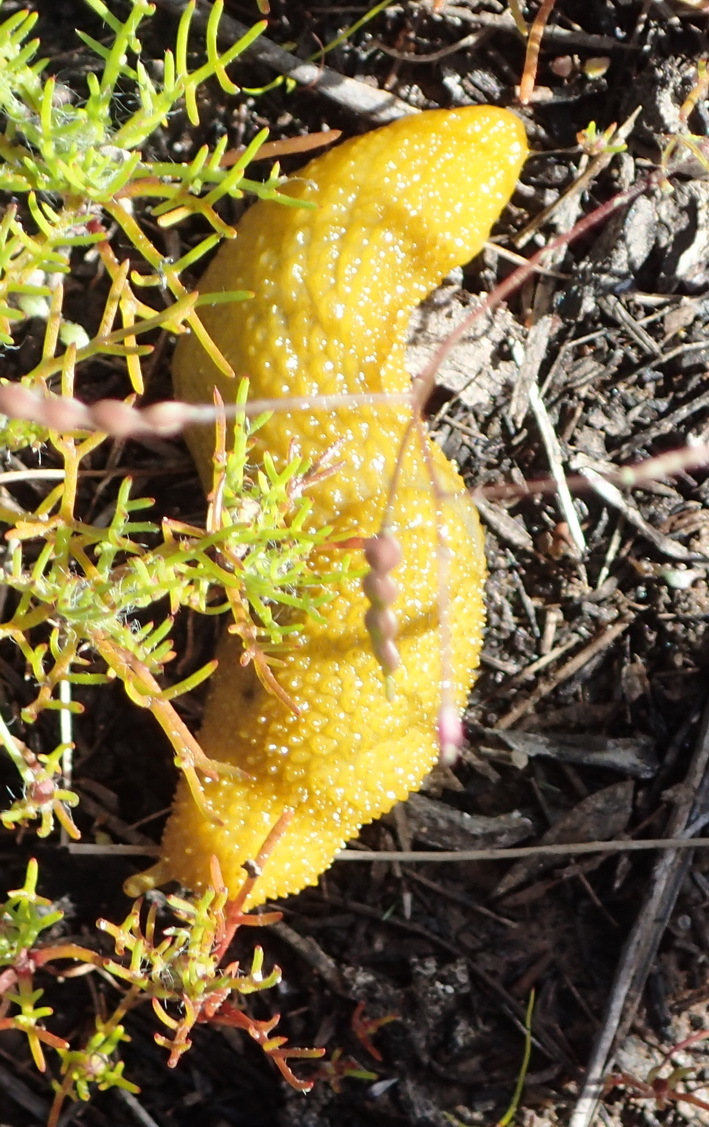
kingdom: Animalia
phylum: Mollusca
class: Gastropoda
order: Stylommatophora
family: Oopeltidae
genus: Oopelta
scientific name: Oopelta granulosa
